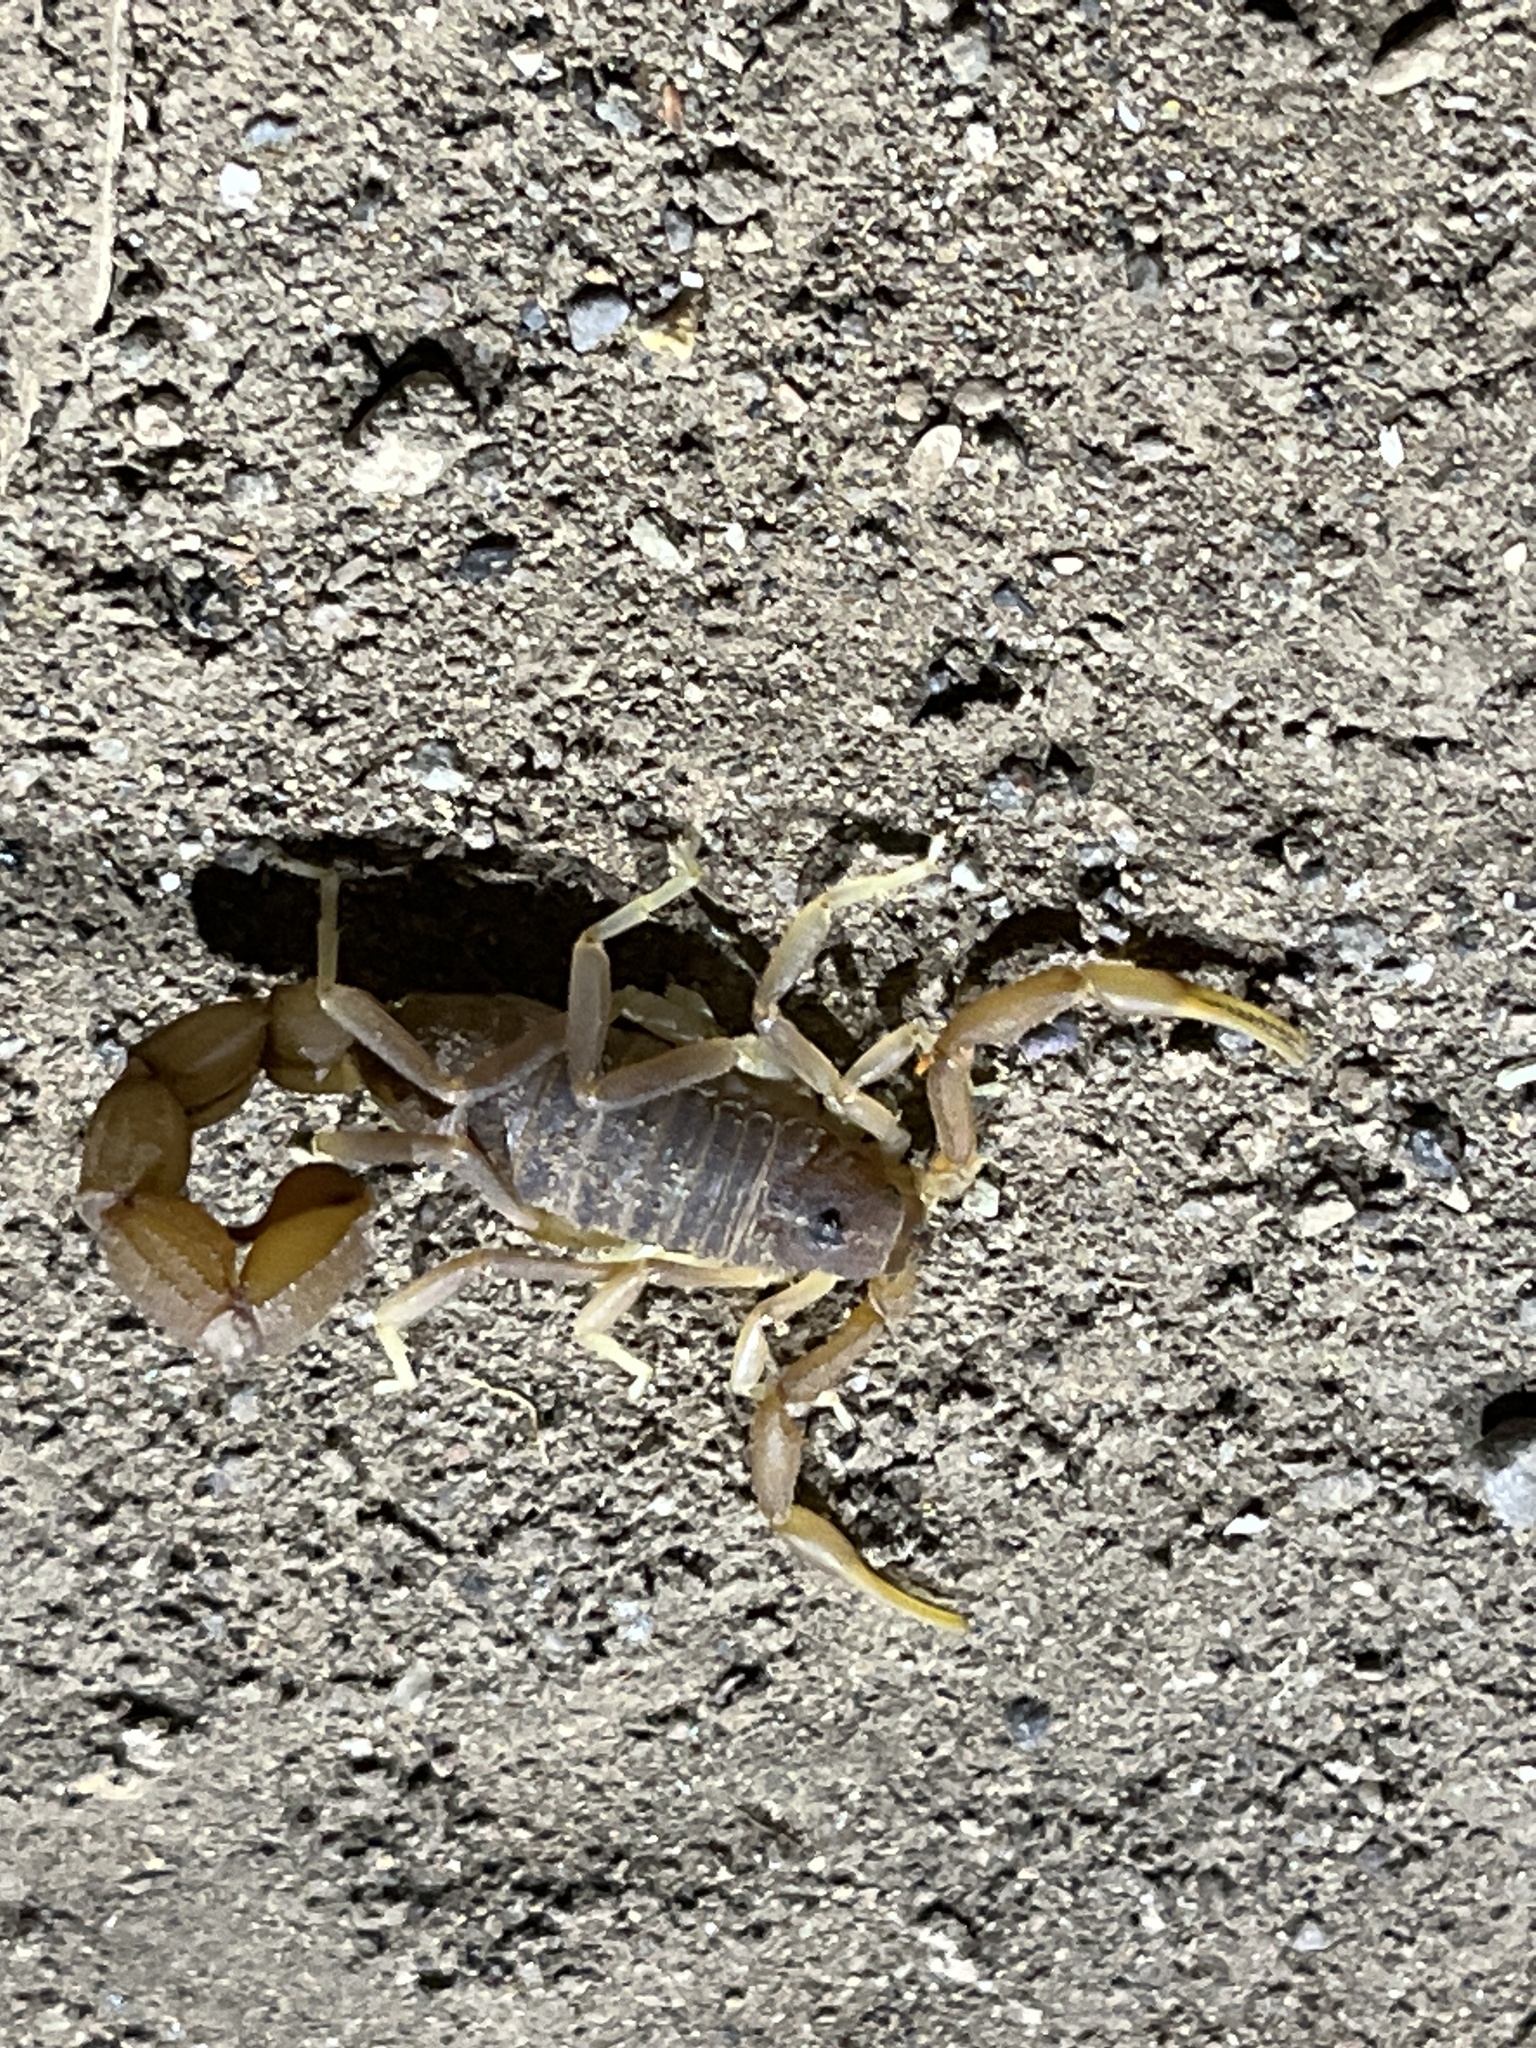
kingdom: Animalia
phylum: Arthropoda
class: Arachnida
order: Scorpiones
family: Buthidae
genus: Parabuthus
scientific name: Parabuthus pallidus
